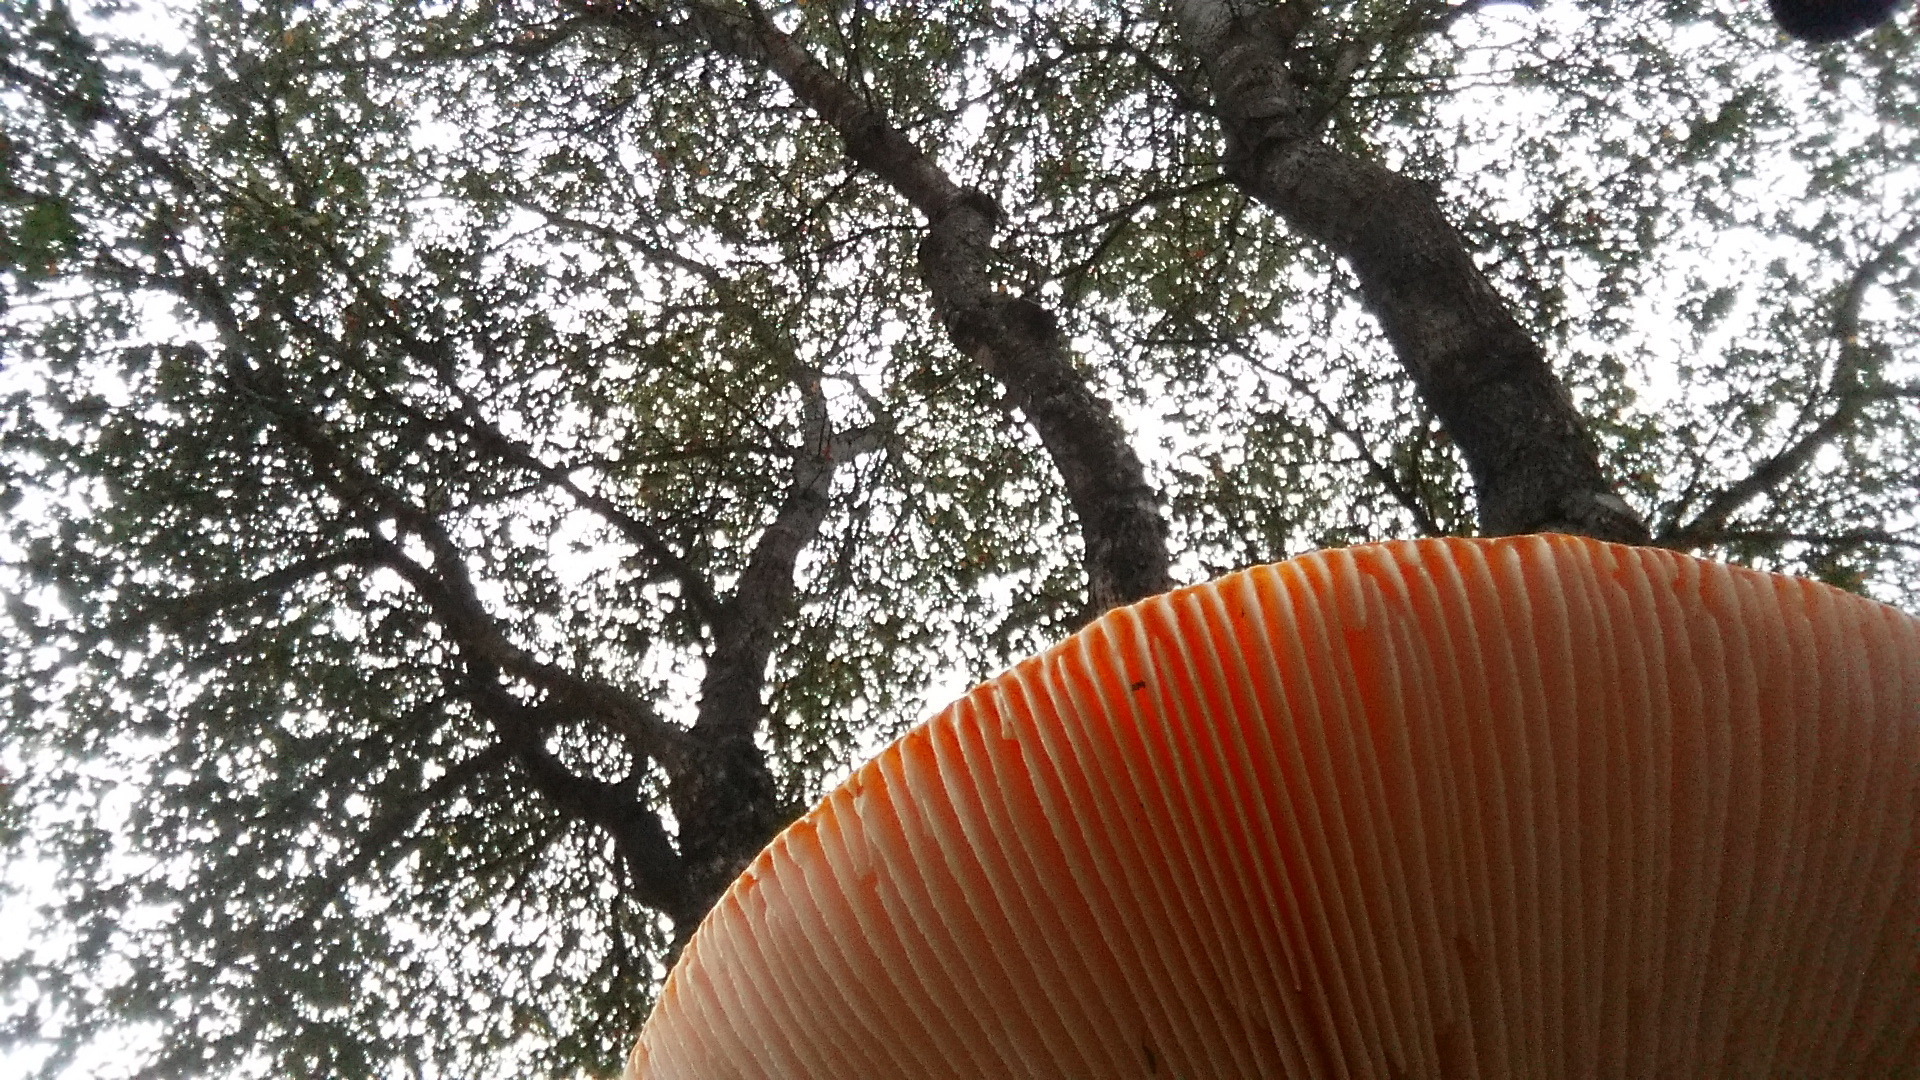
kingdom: Fungi
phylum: Basidiomycota
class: Agaricomycetes
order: Agaricales
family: Amanitaceae
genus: Amanita
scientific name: Amanita muscaria
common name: Fly agaric
